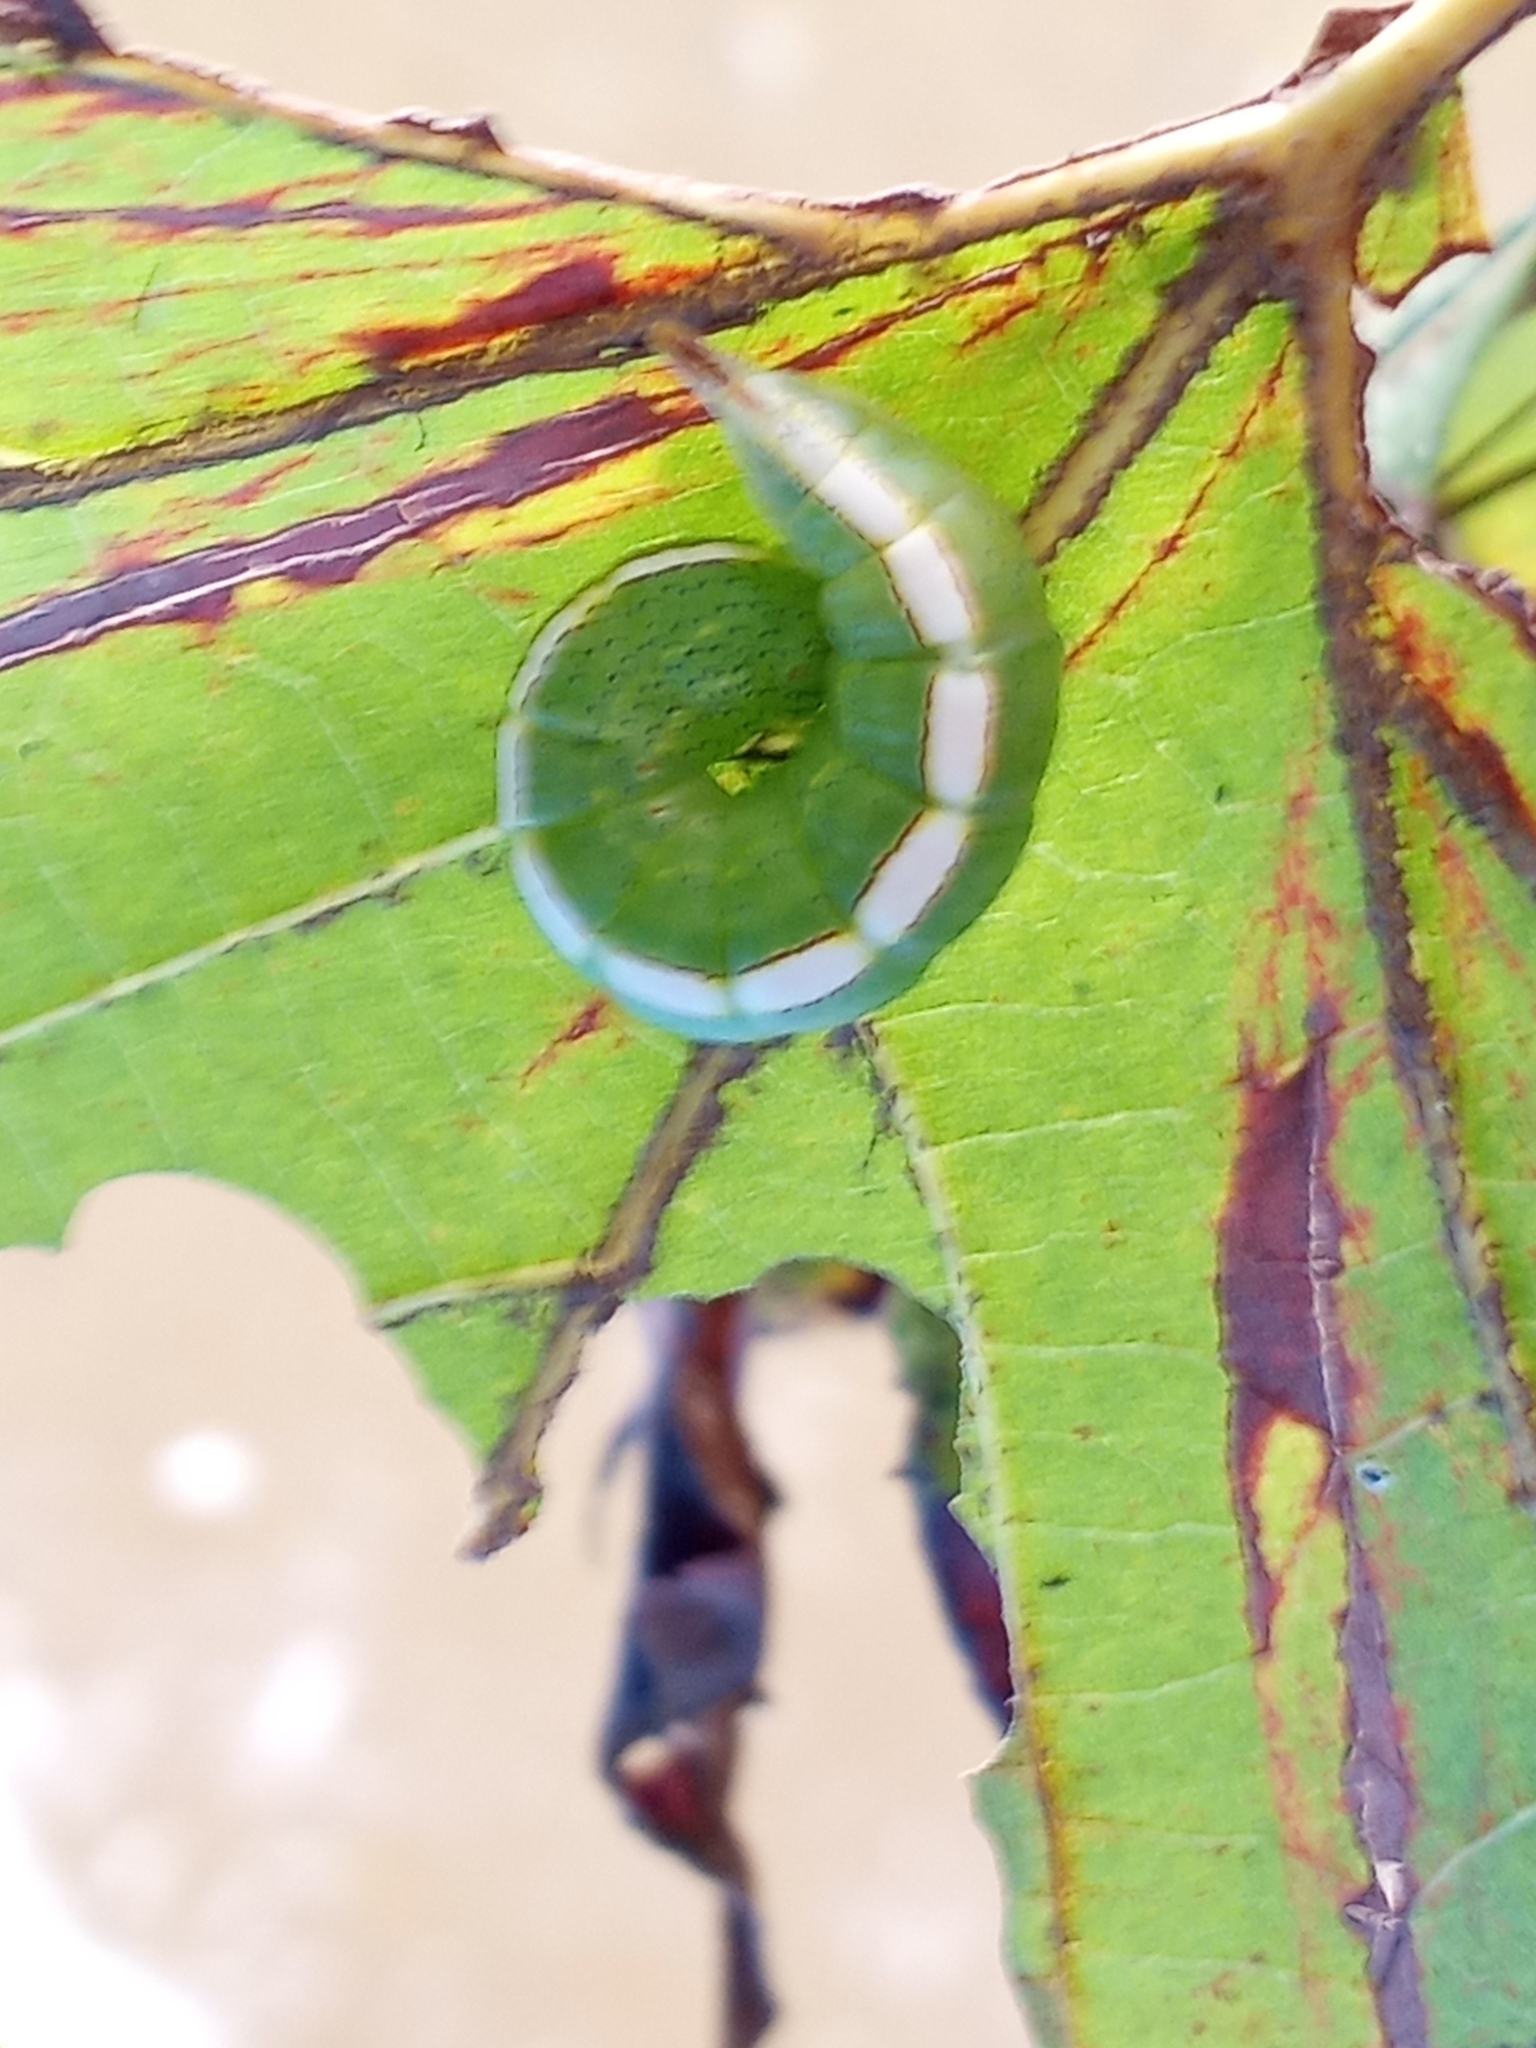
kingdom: Animalia
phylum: Arthropoda
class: Insecta
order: Lepidoptera
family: Notodontidae
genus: Misogada
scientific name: Misogada unicolor
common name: Drab prominent
